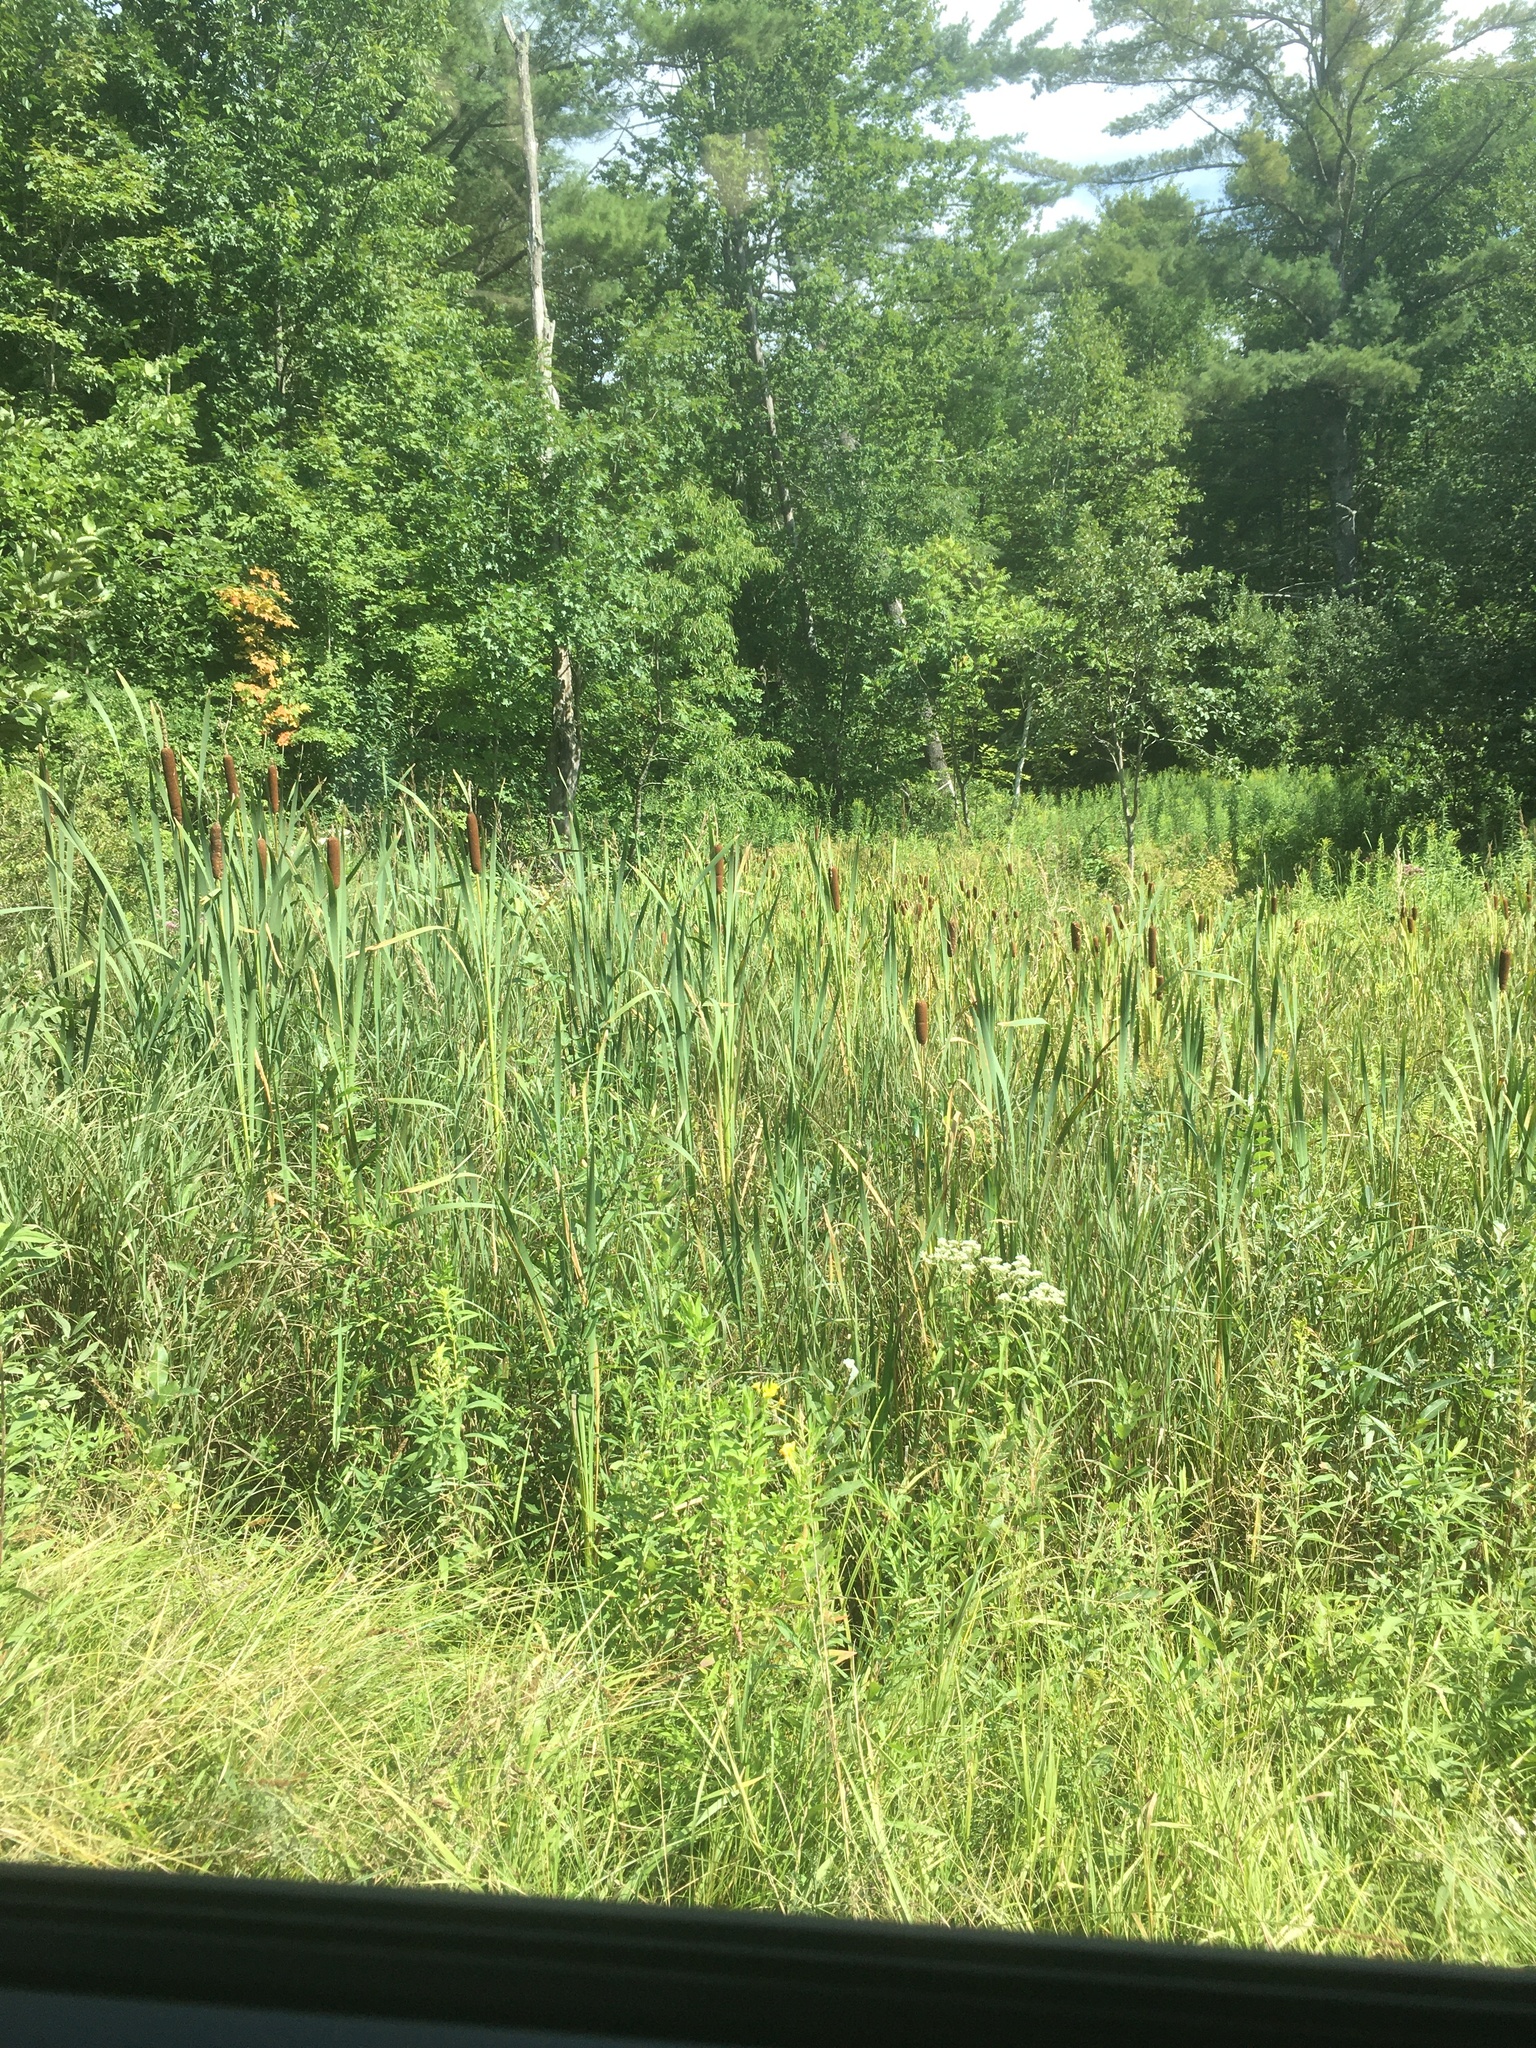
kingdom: Plantae
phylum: Tracheophyta
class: Liliopsida
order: Poales
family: Typhaceae
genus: Typha
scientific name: Typha latifolia
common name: Broadleaf cattail
